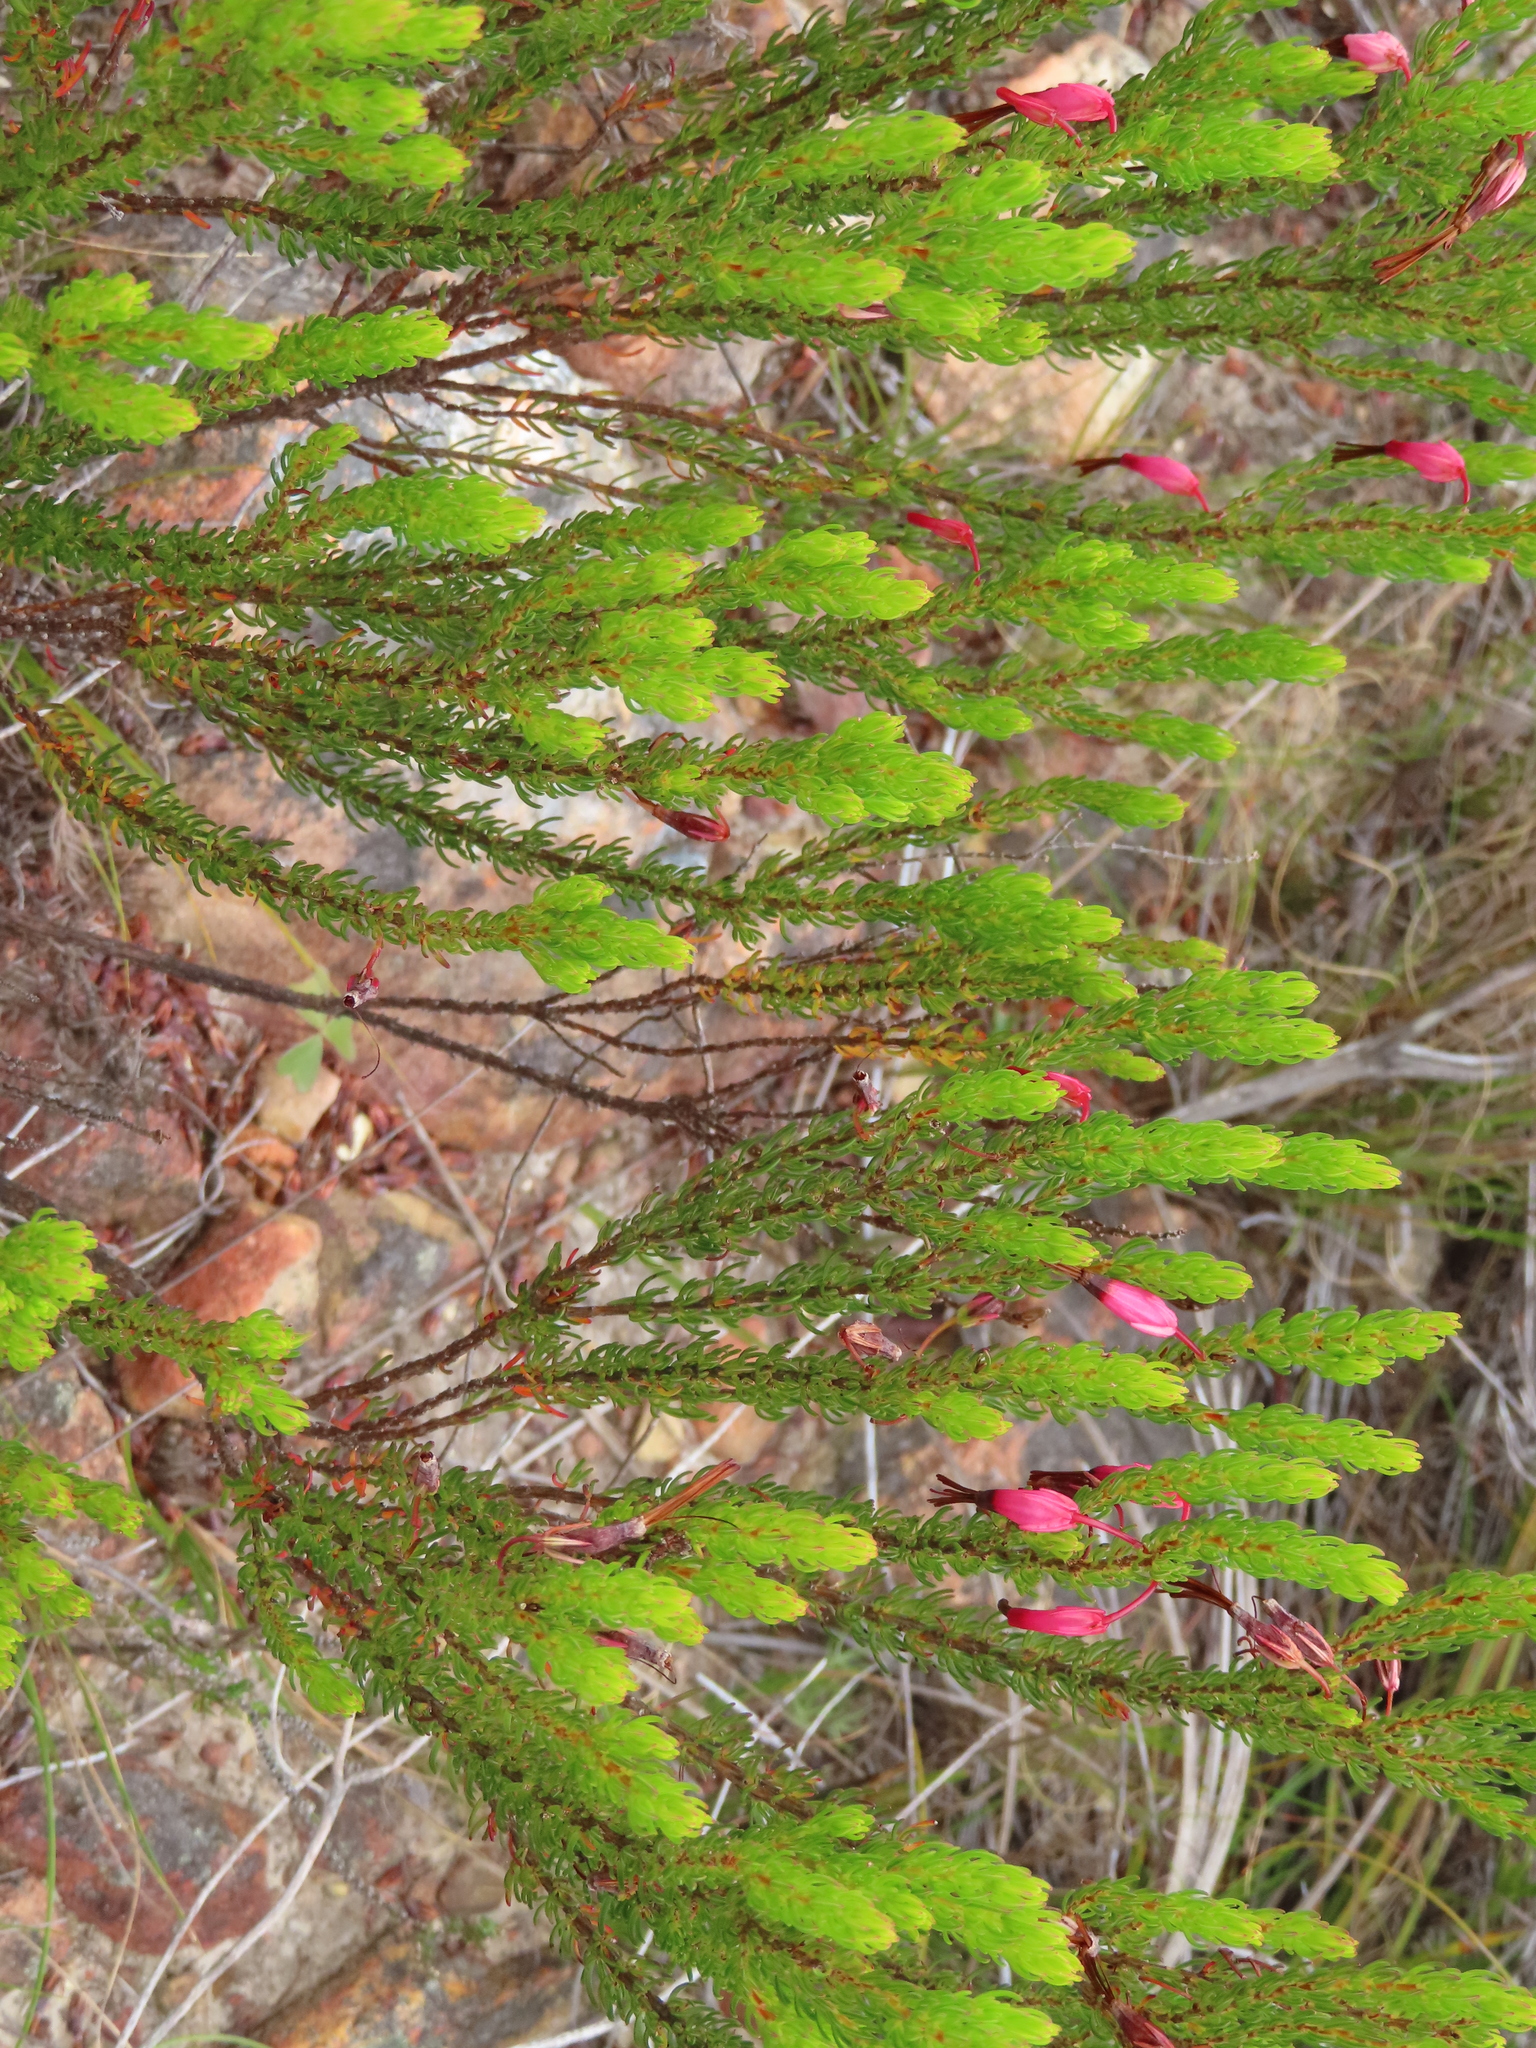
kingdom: Plantae
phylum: Tracheophyta
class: Magnoliopsida
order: Ericales
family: Ericaceae
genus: Erica
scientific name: Erica plukenetii
